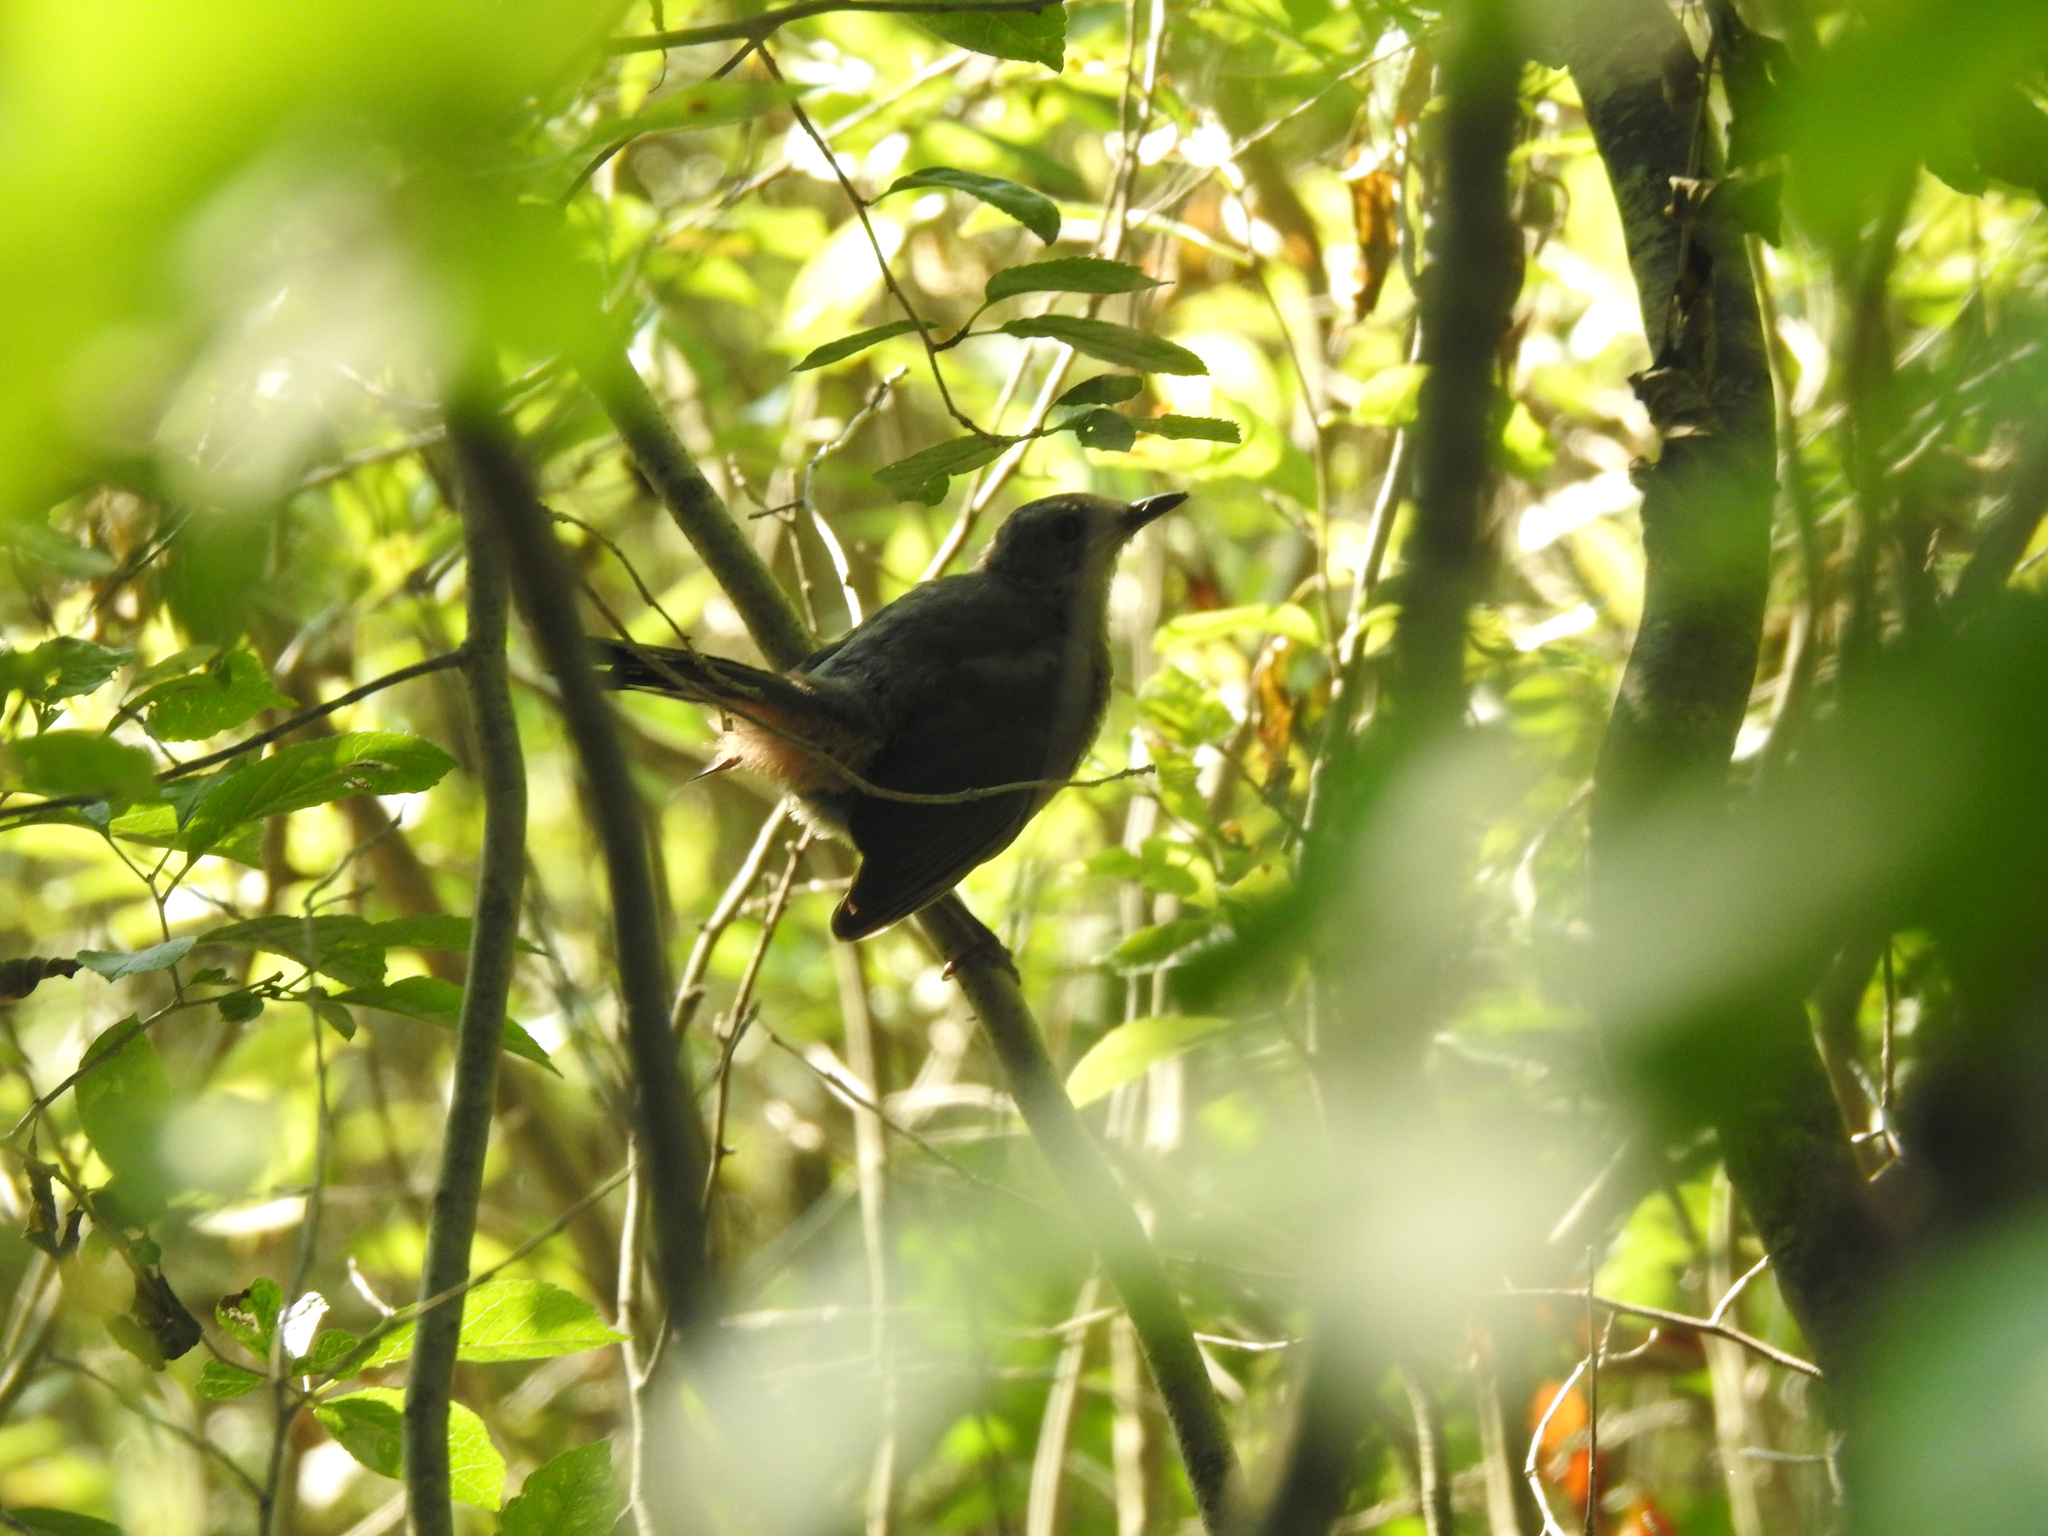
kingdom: Animalia
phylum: Chordata
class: Aves
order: Passeriformes
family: Mimidae
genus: Dumetella
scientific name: Dumetella carolinensis
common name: Gray catbird
